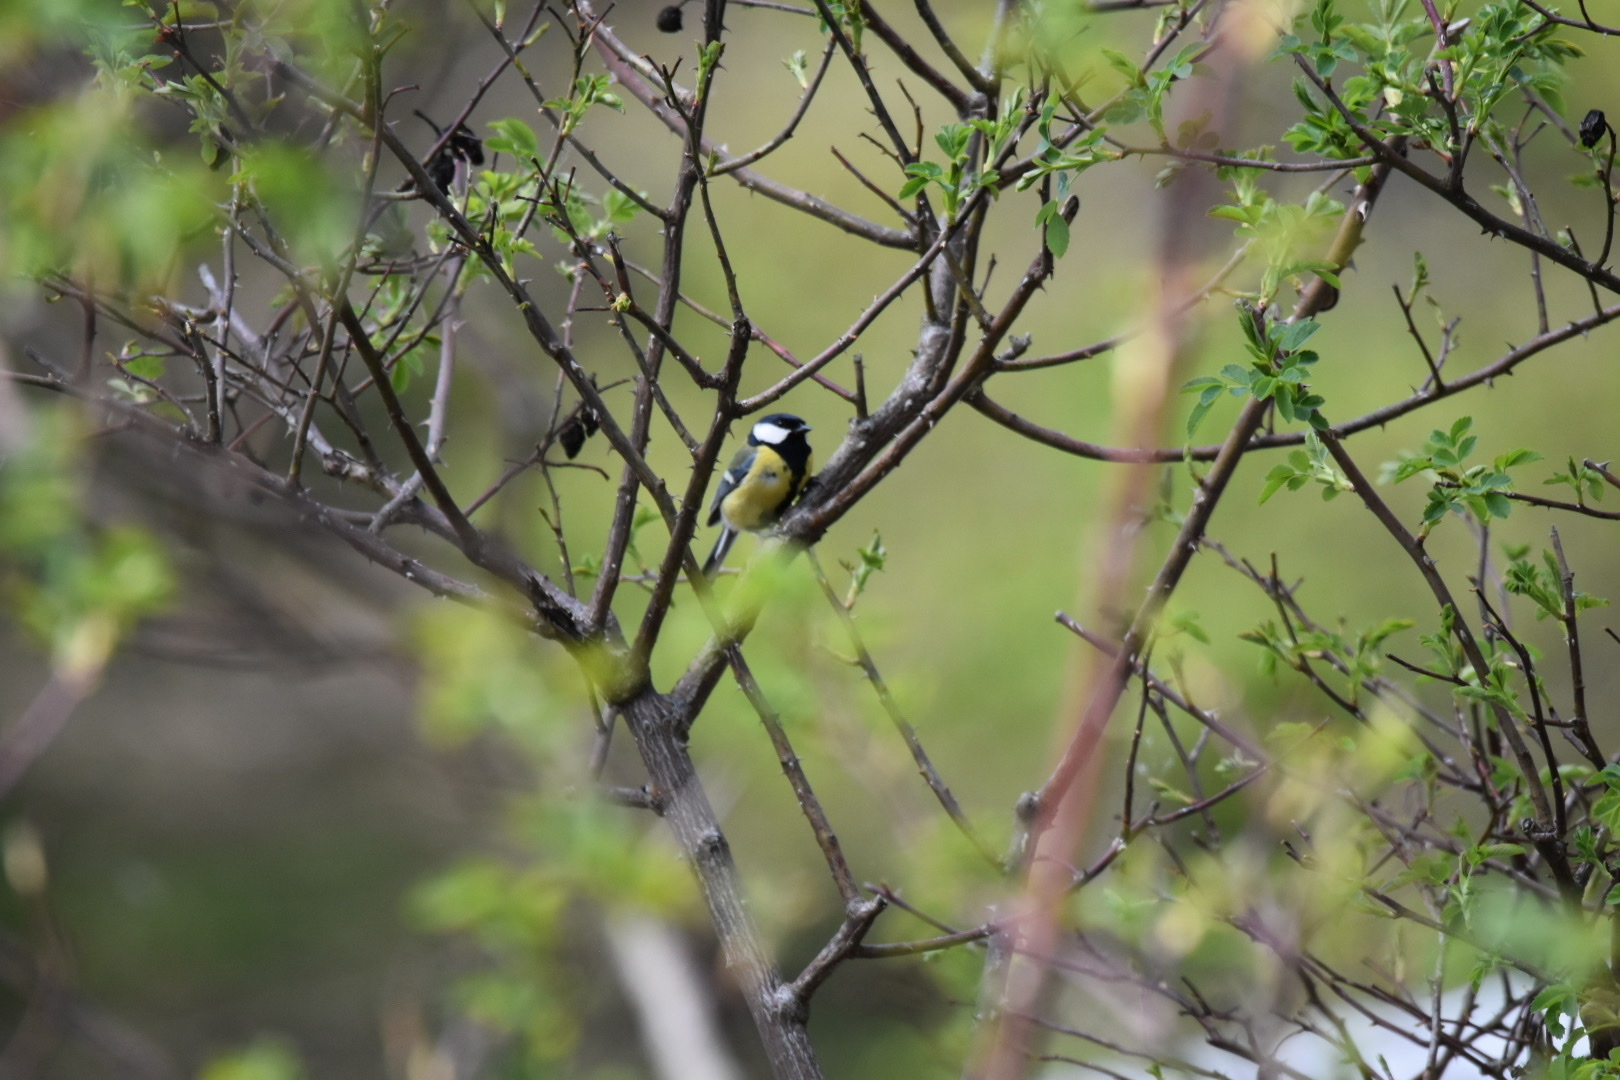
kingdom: Animalia
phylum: Chordata
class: Aves
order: Passeriformes
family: Paridae
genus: Parus
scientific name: Parus major
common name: Great tit
